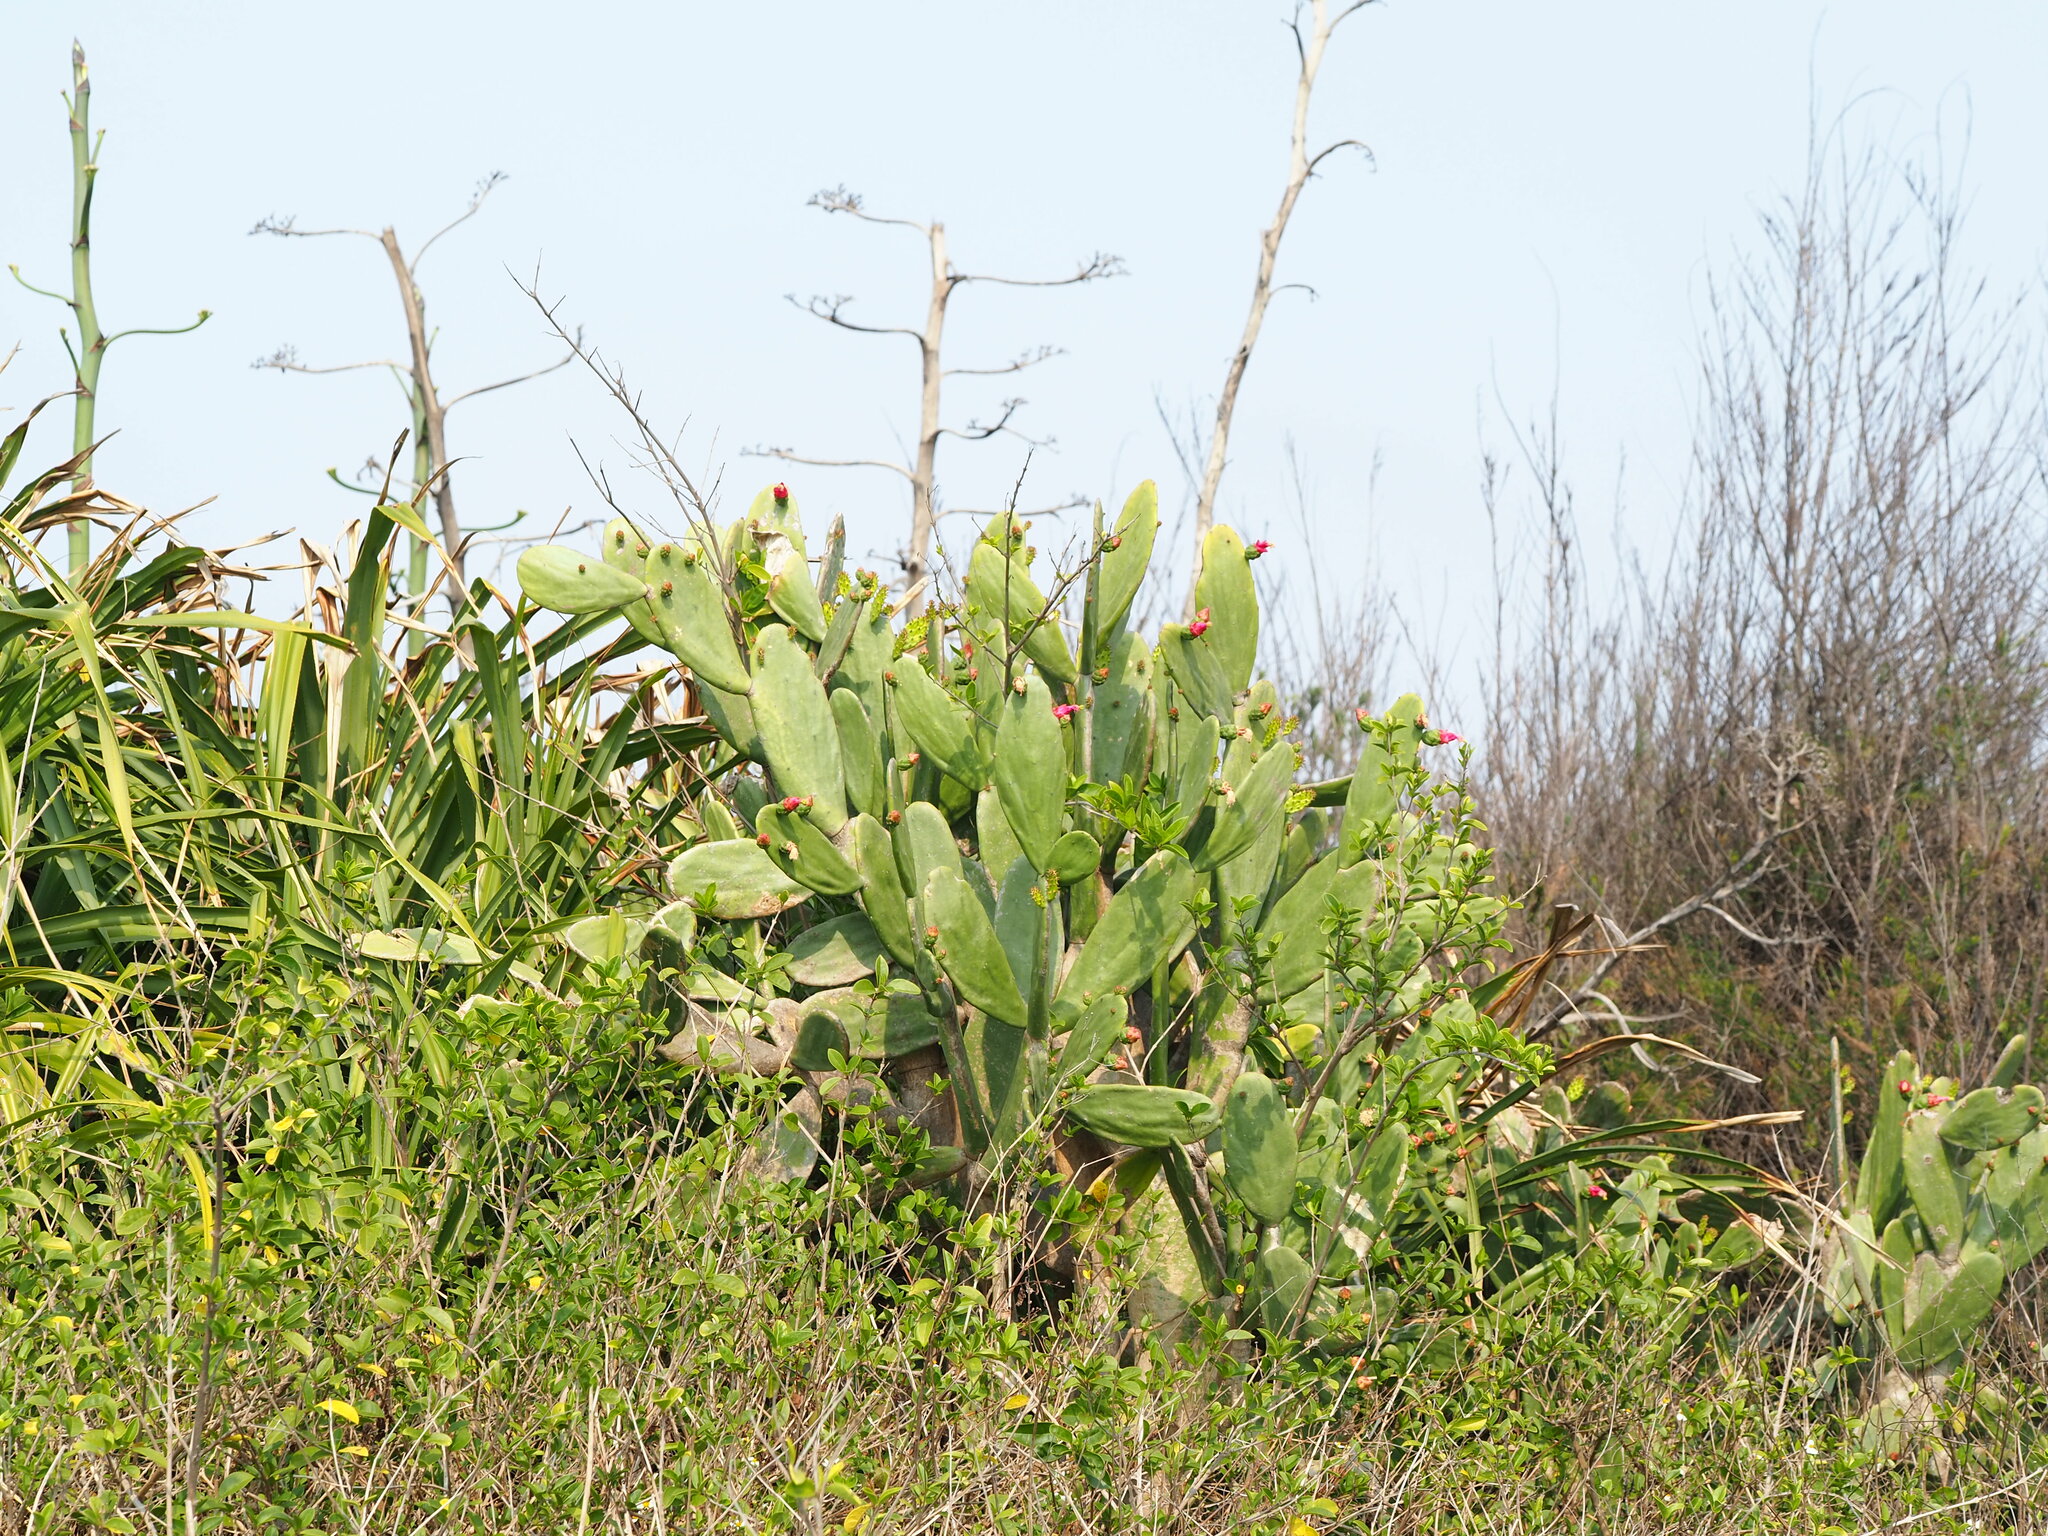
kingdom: Plantae
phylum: Tracheophyta
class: Magnoliopsida
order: Caryophyllales
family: Cactaceae
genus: Opuntia
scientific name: Opuntia cochenillifera
